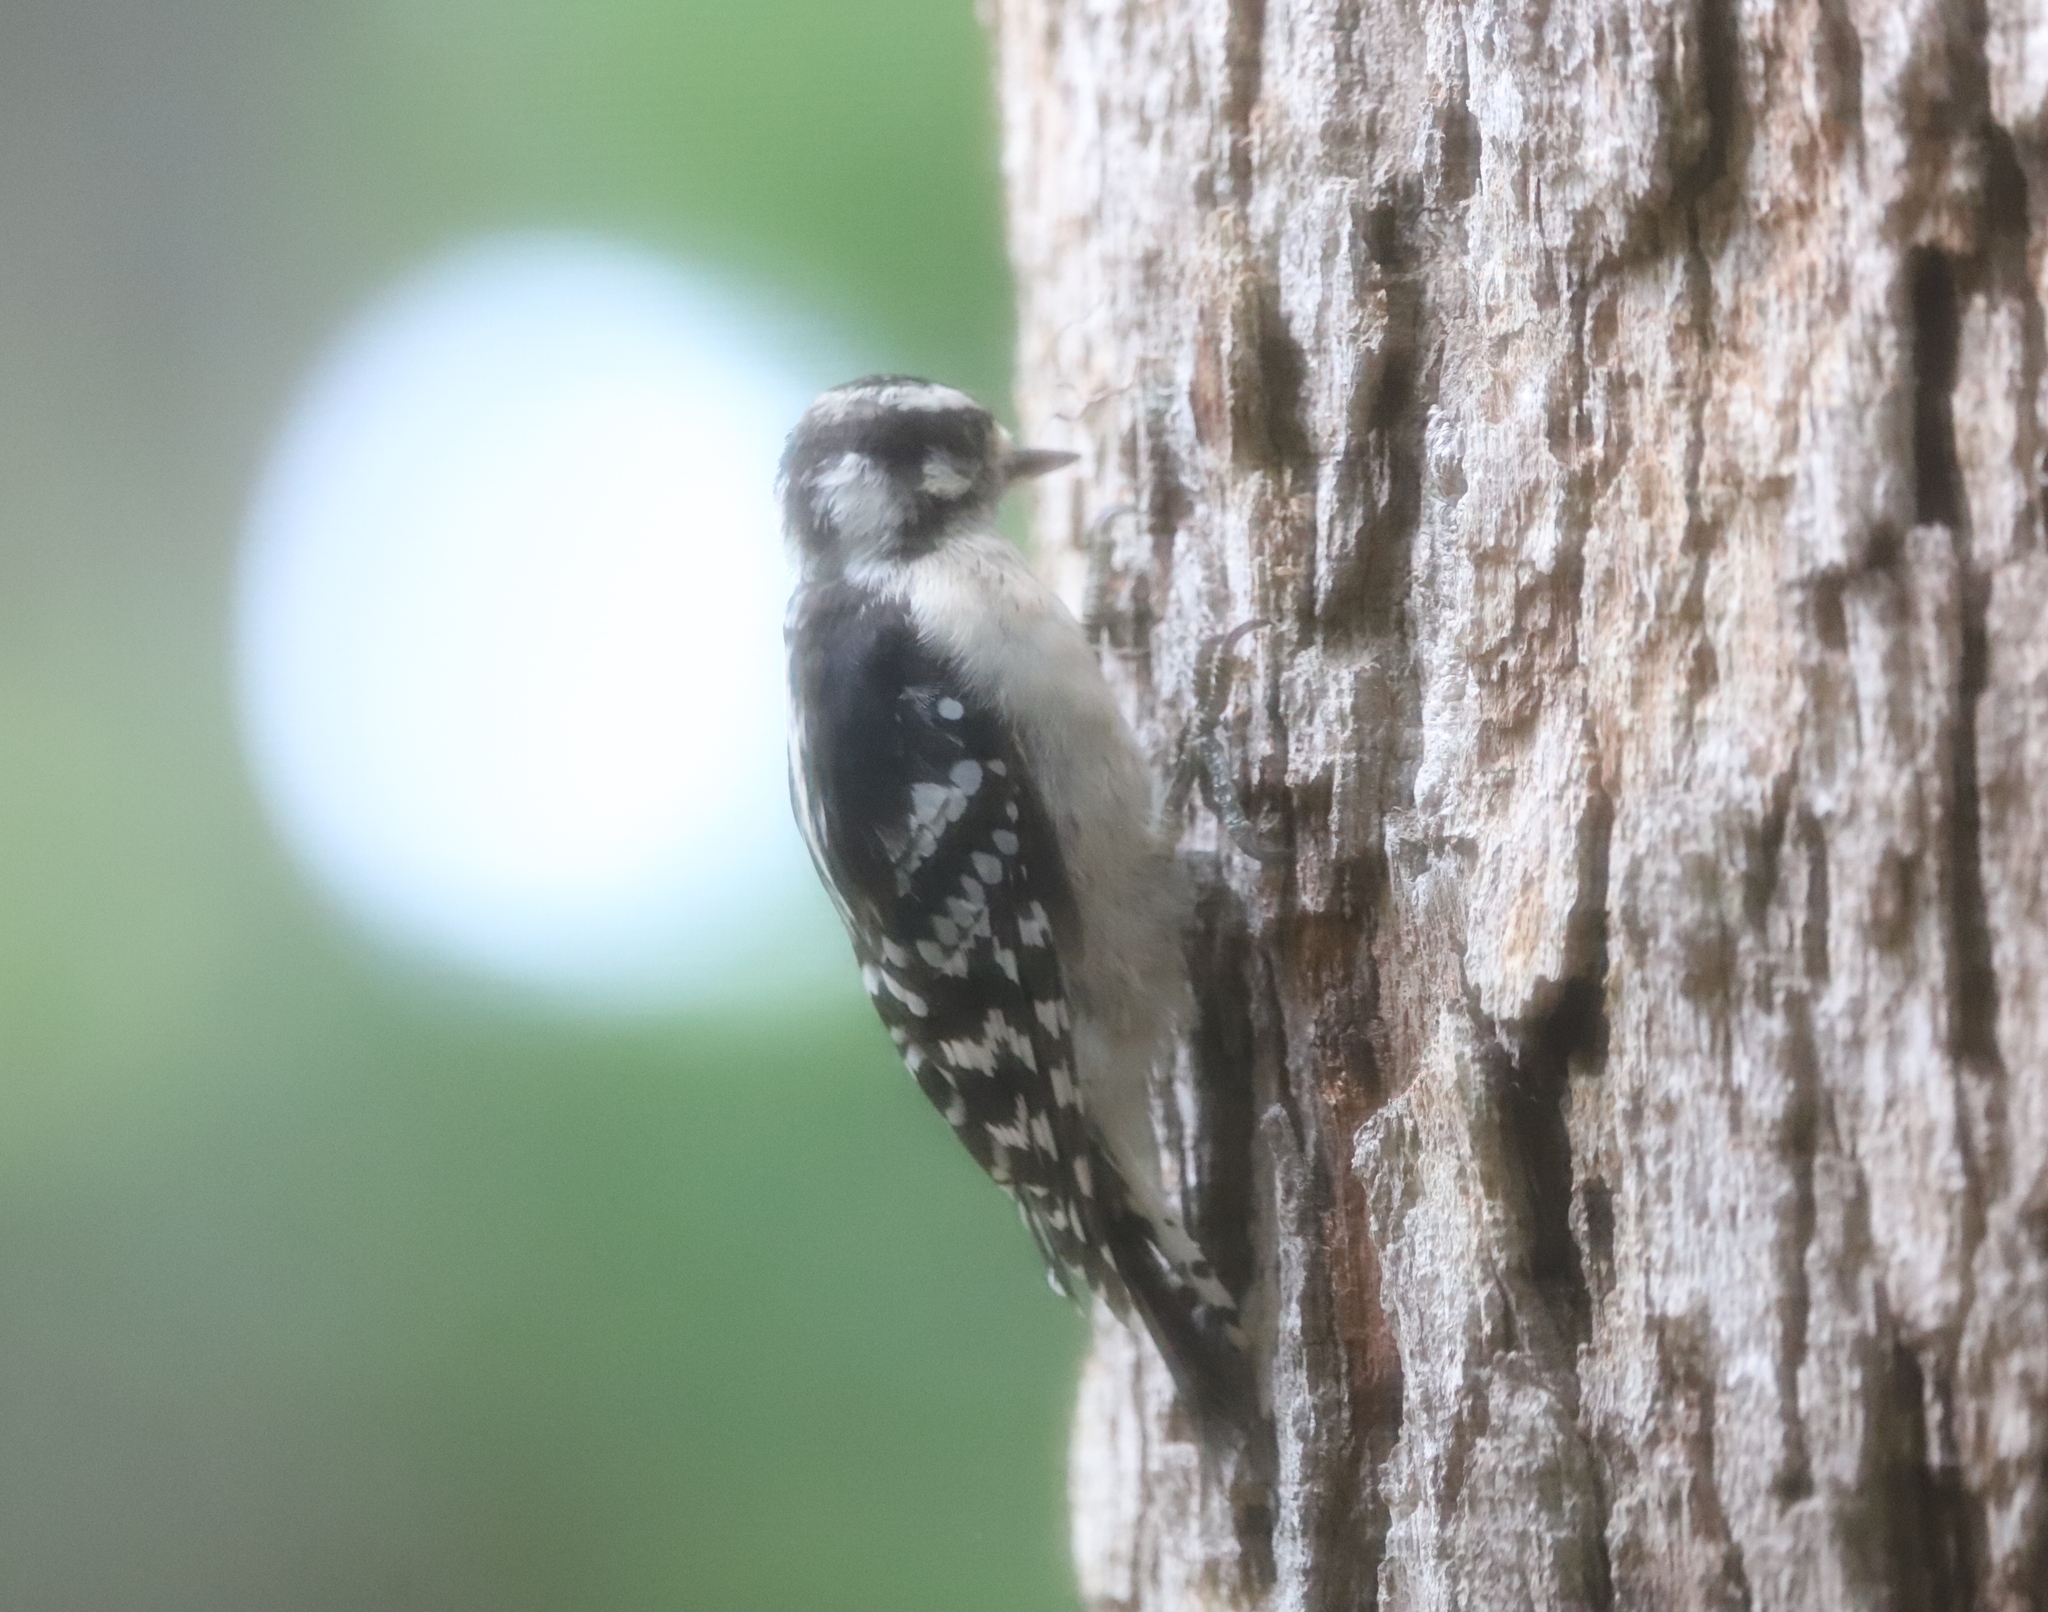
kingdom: Animalia
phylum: Chordata
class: Aves
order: Piciformes
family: Picidae
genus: Dryobates
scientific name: Dryobates pubescens
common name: Downy woodpecker
